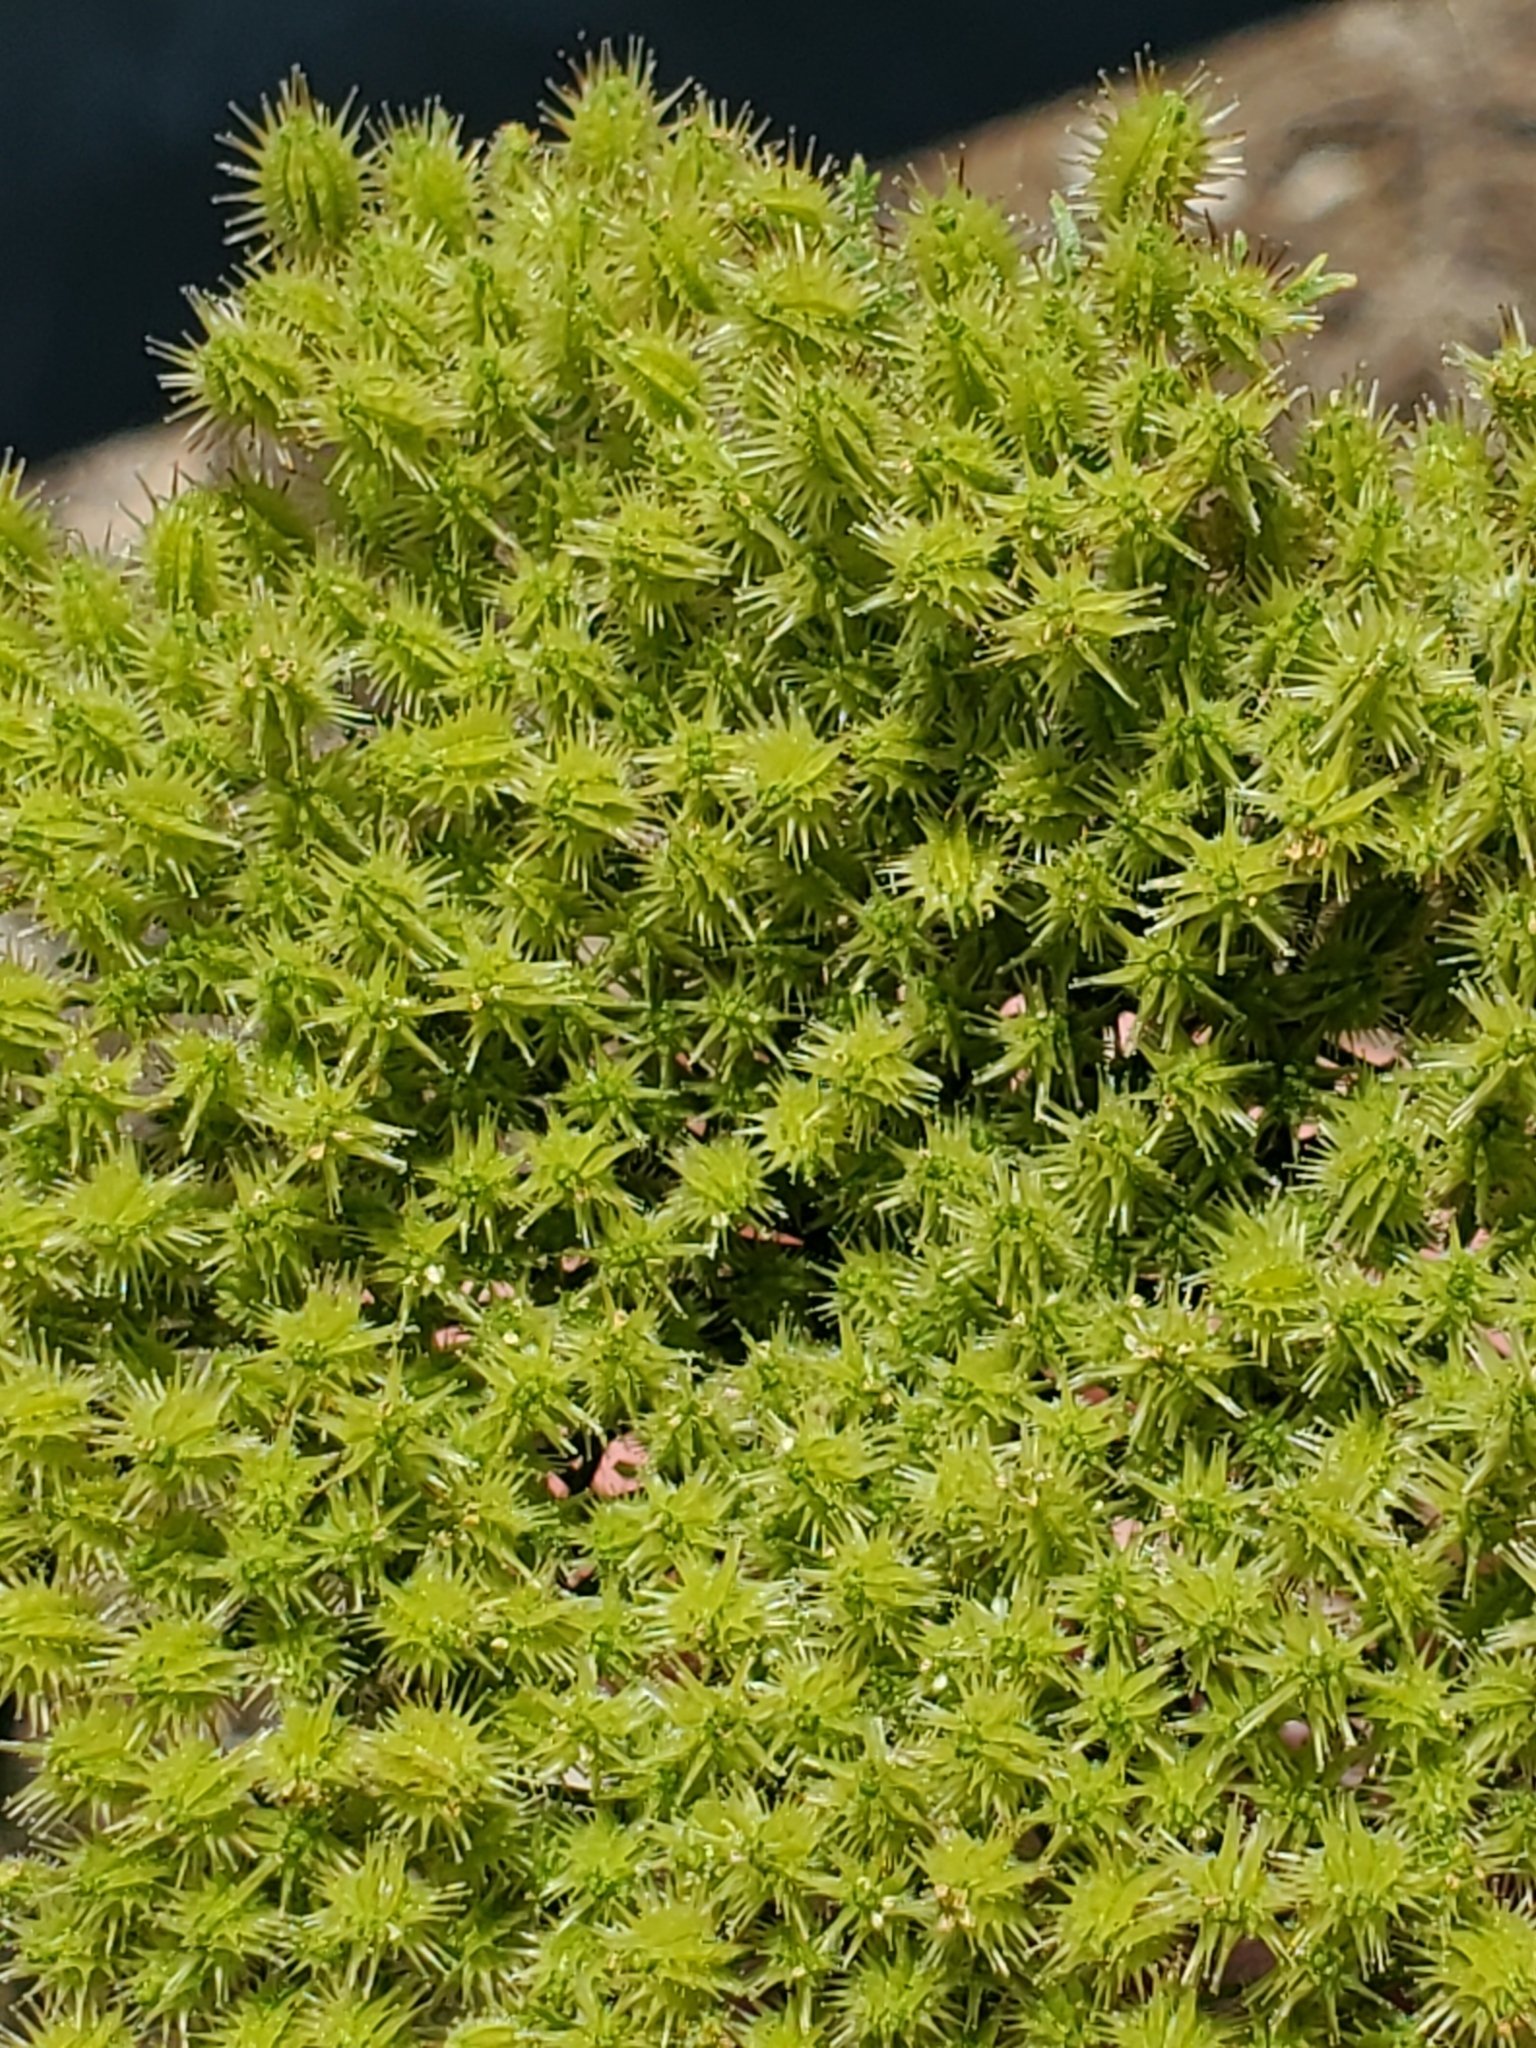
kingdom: Plantae
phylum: Tracheophyta
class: Magnoliopsida
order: Apiales
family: Apiaceae
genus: Daucus
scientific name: Daucus pusillus
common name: Southwest wild carrot
